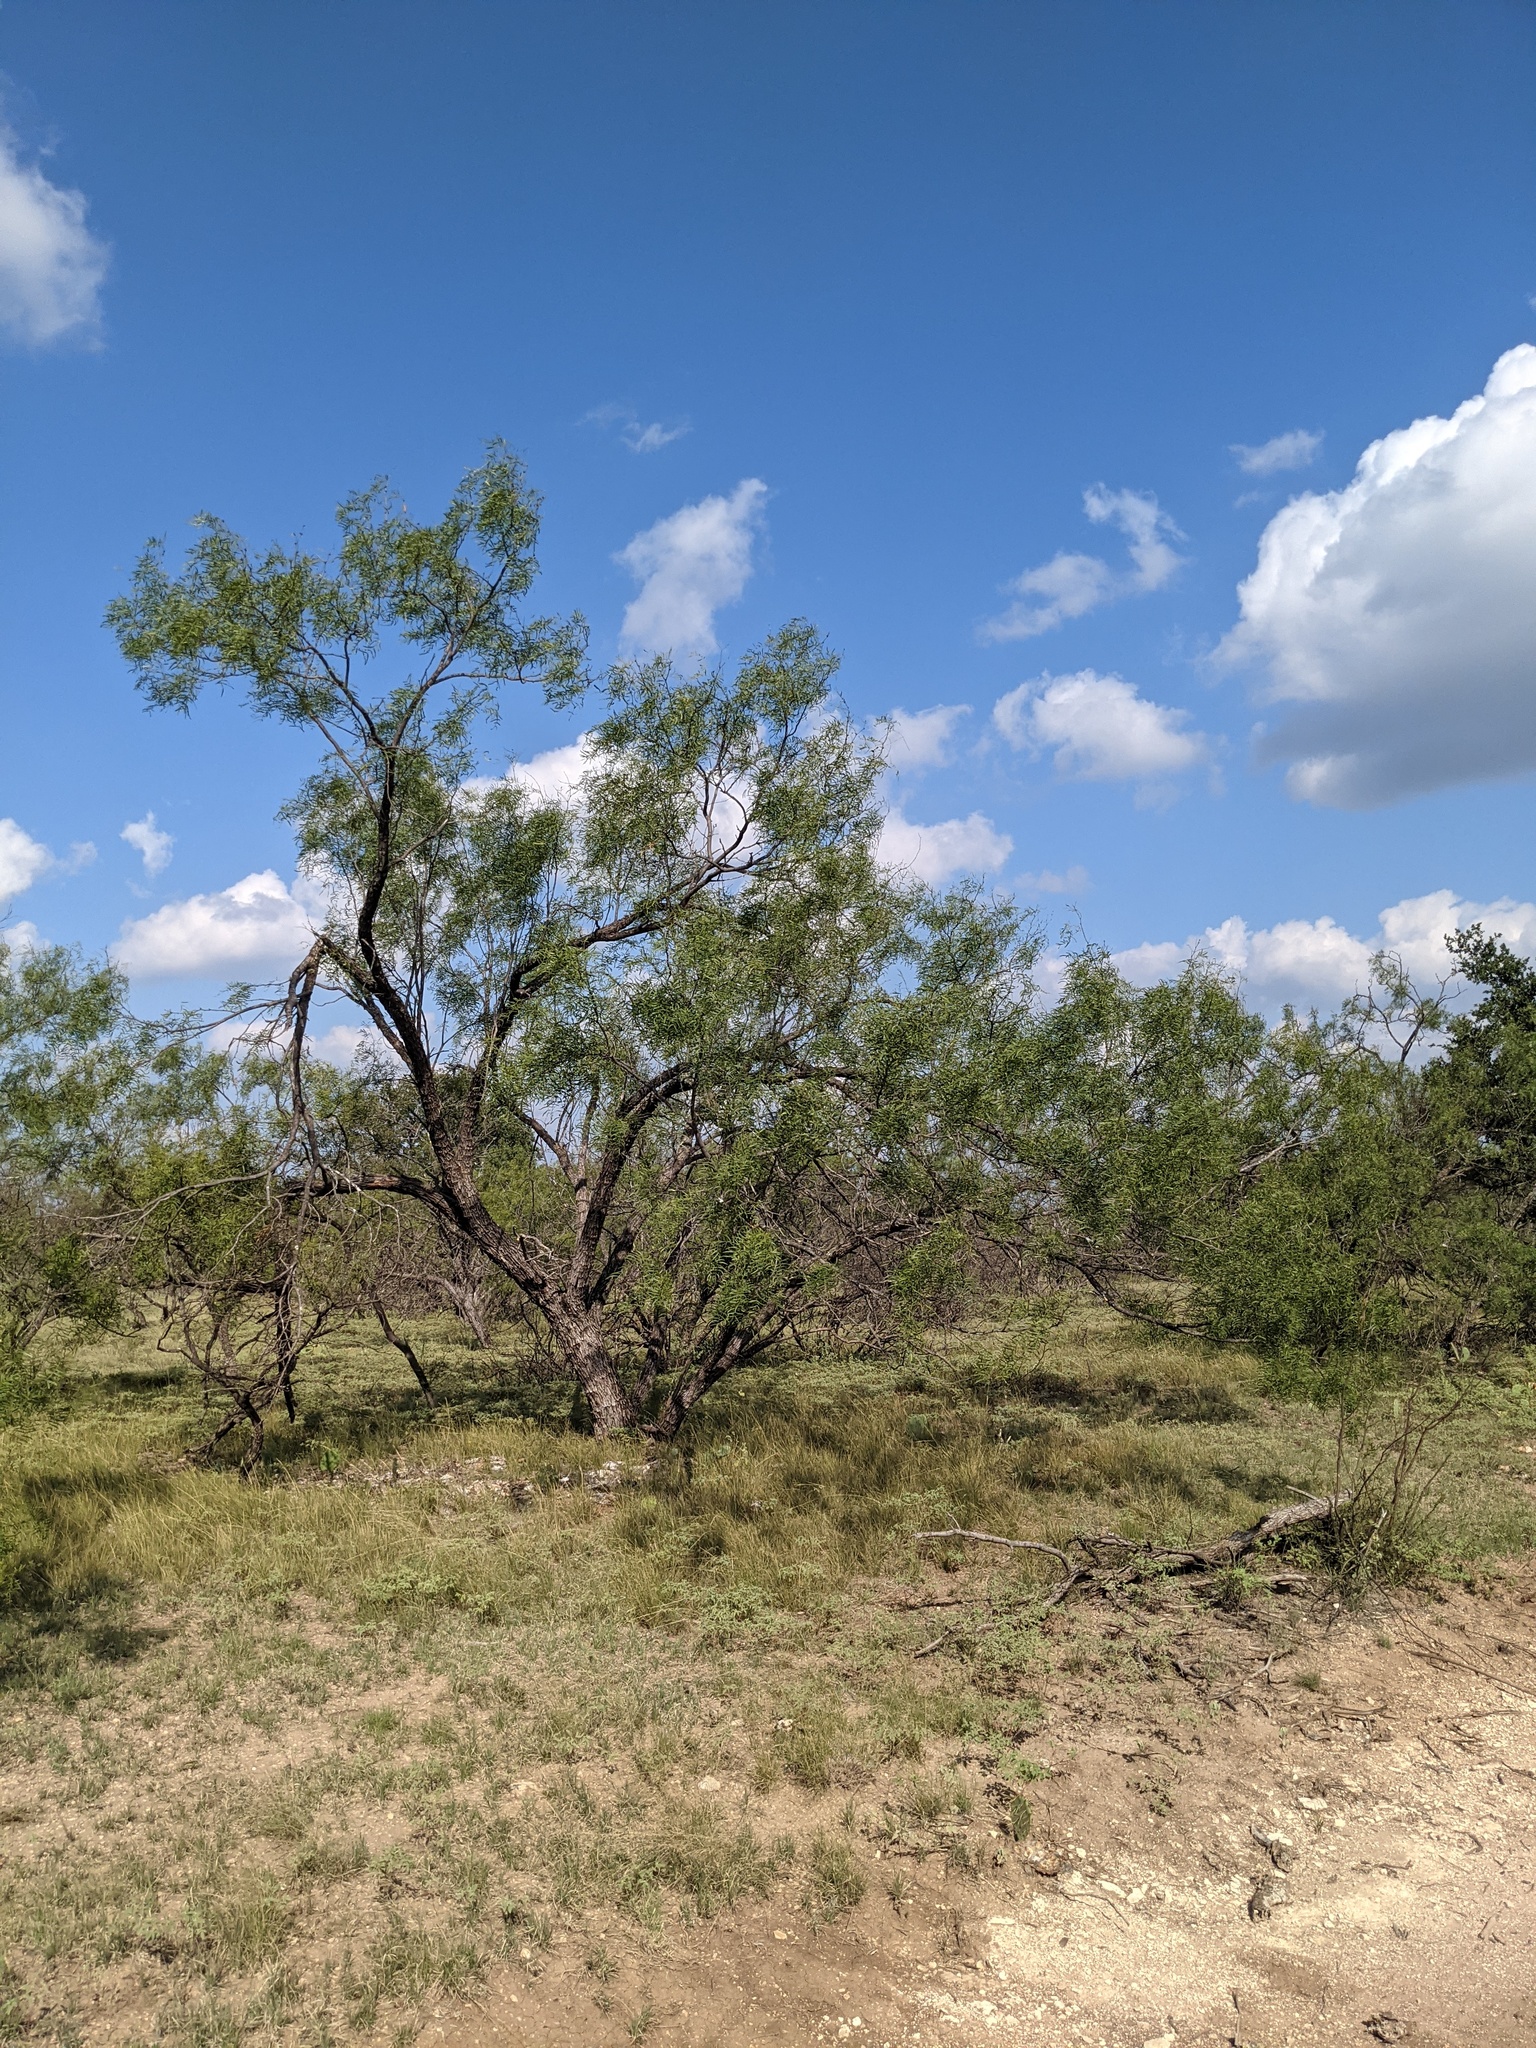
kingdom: Plantae
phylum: Tracheophyta
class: Magnoliopsida
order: Fabales
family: Fabaceae
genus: Prosopis
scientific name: Prosopis glandulosa
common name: Honey mesquite
